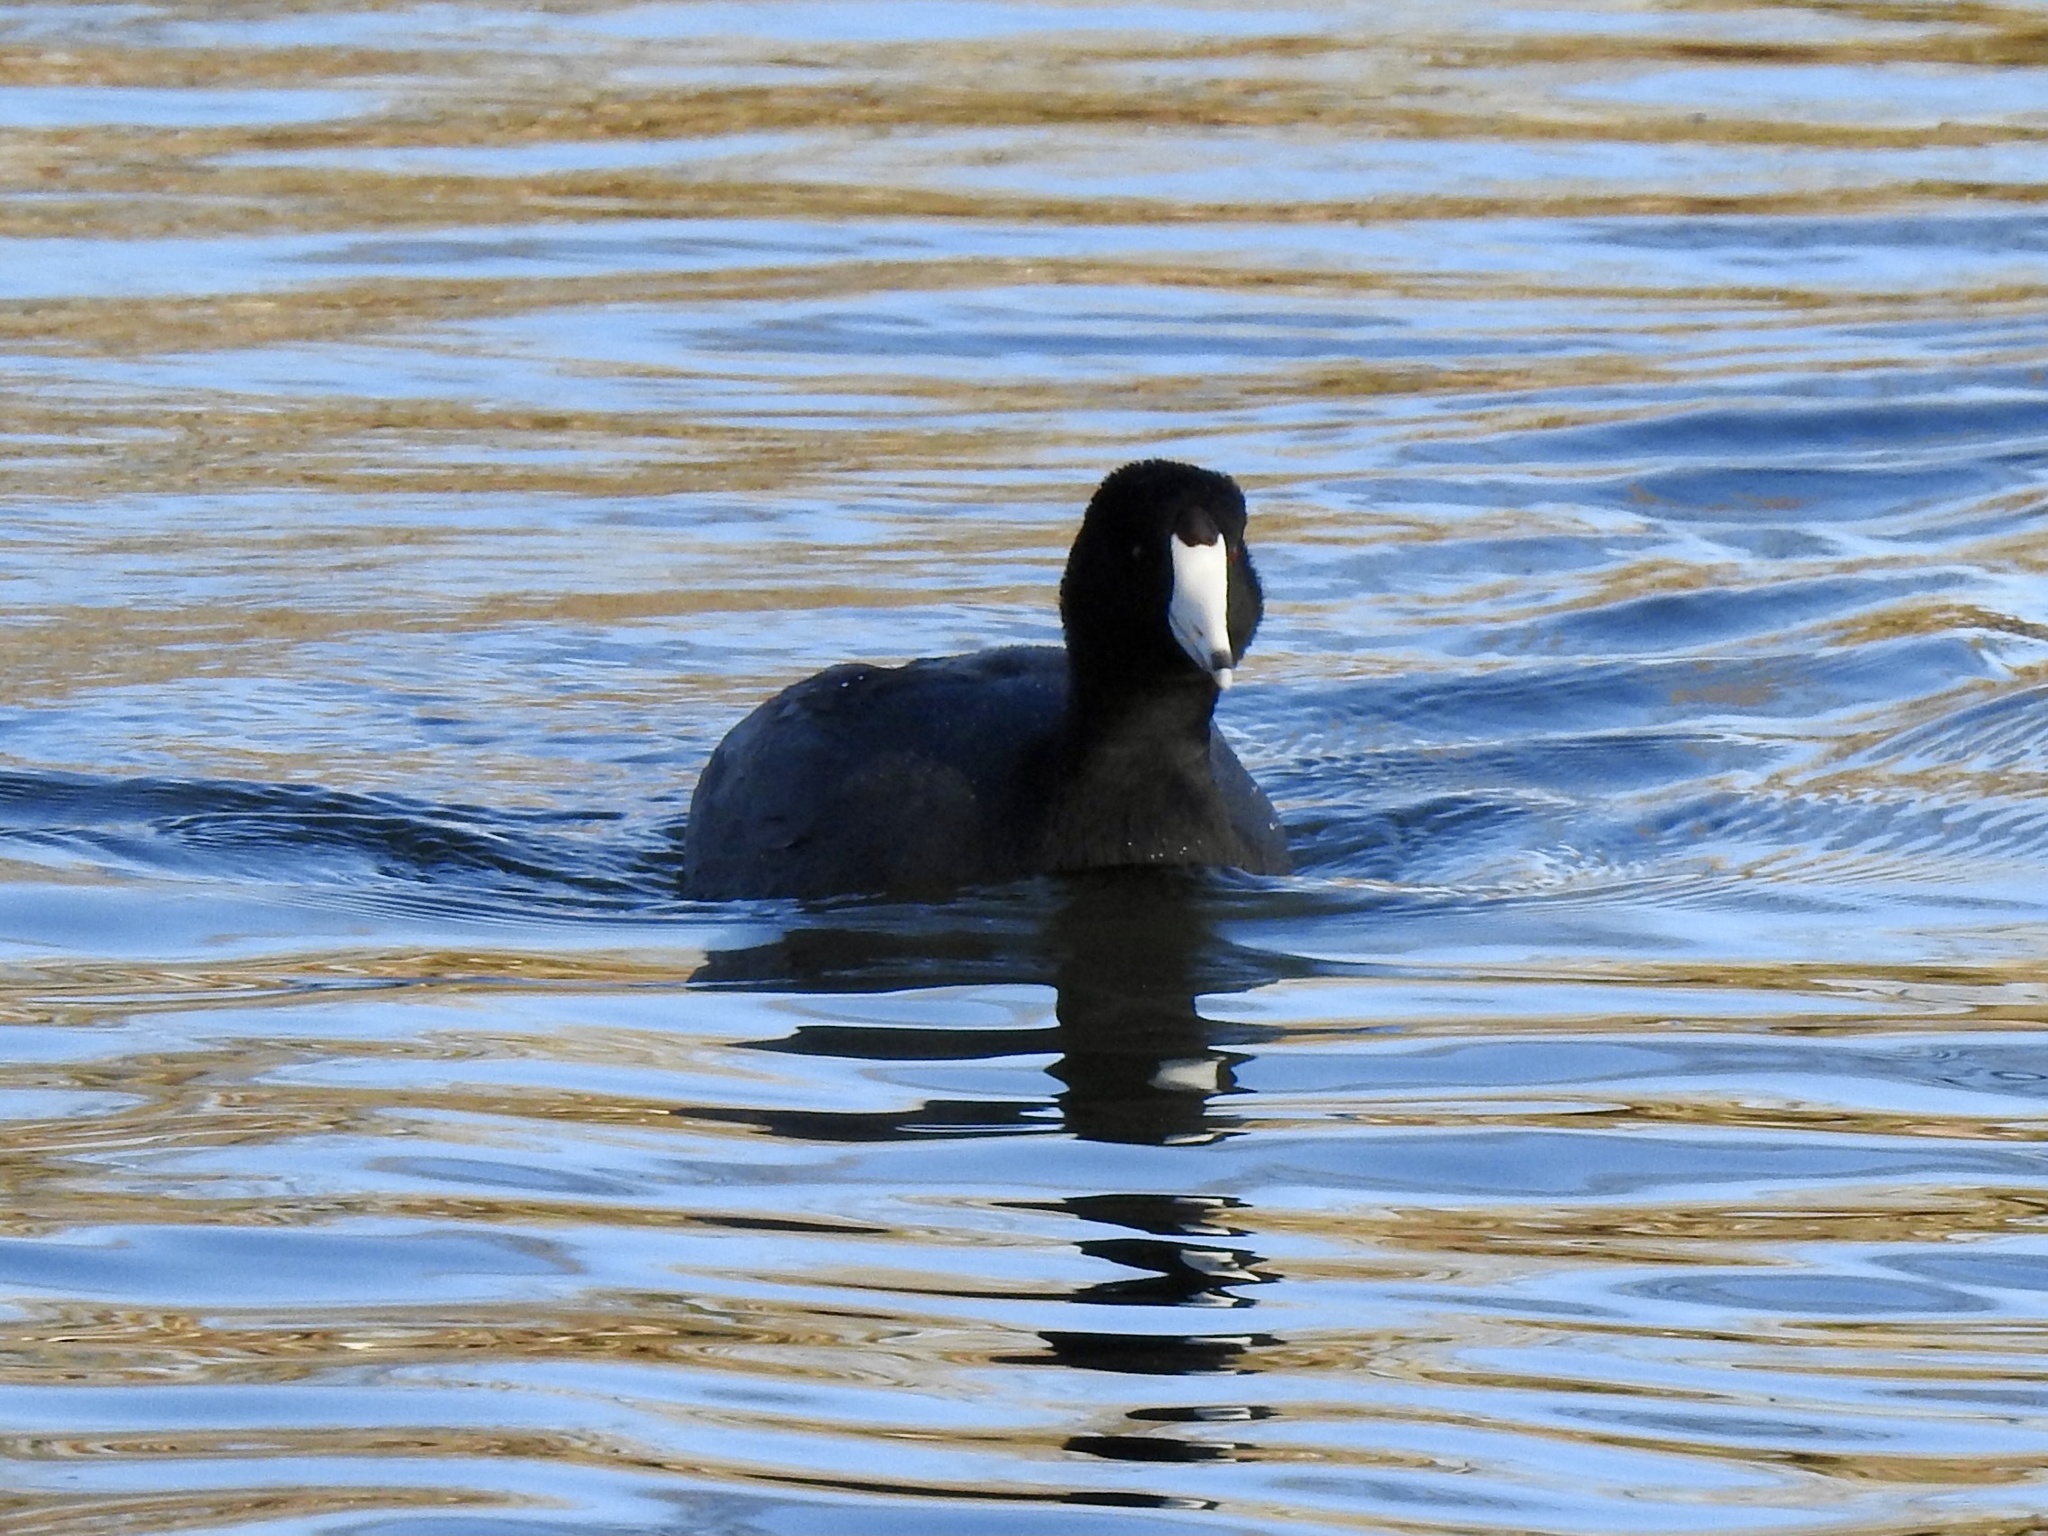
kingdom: Animalia
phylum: Chordata
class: Aves
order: Gruiformes
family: Rallidae
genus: Fulica
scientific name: Fulica americana
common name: American coot
